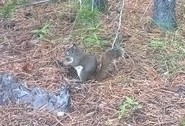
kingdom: Animalia
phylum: Chordata
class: Mammalia
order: Rodentia
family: Sciuridae
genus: Tamiasciurus
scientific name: Tamiasciurus hudsonicus
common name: Red squirrel
